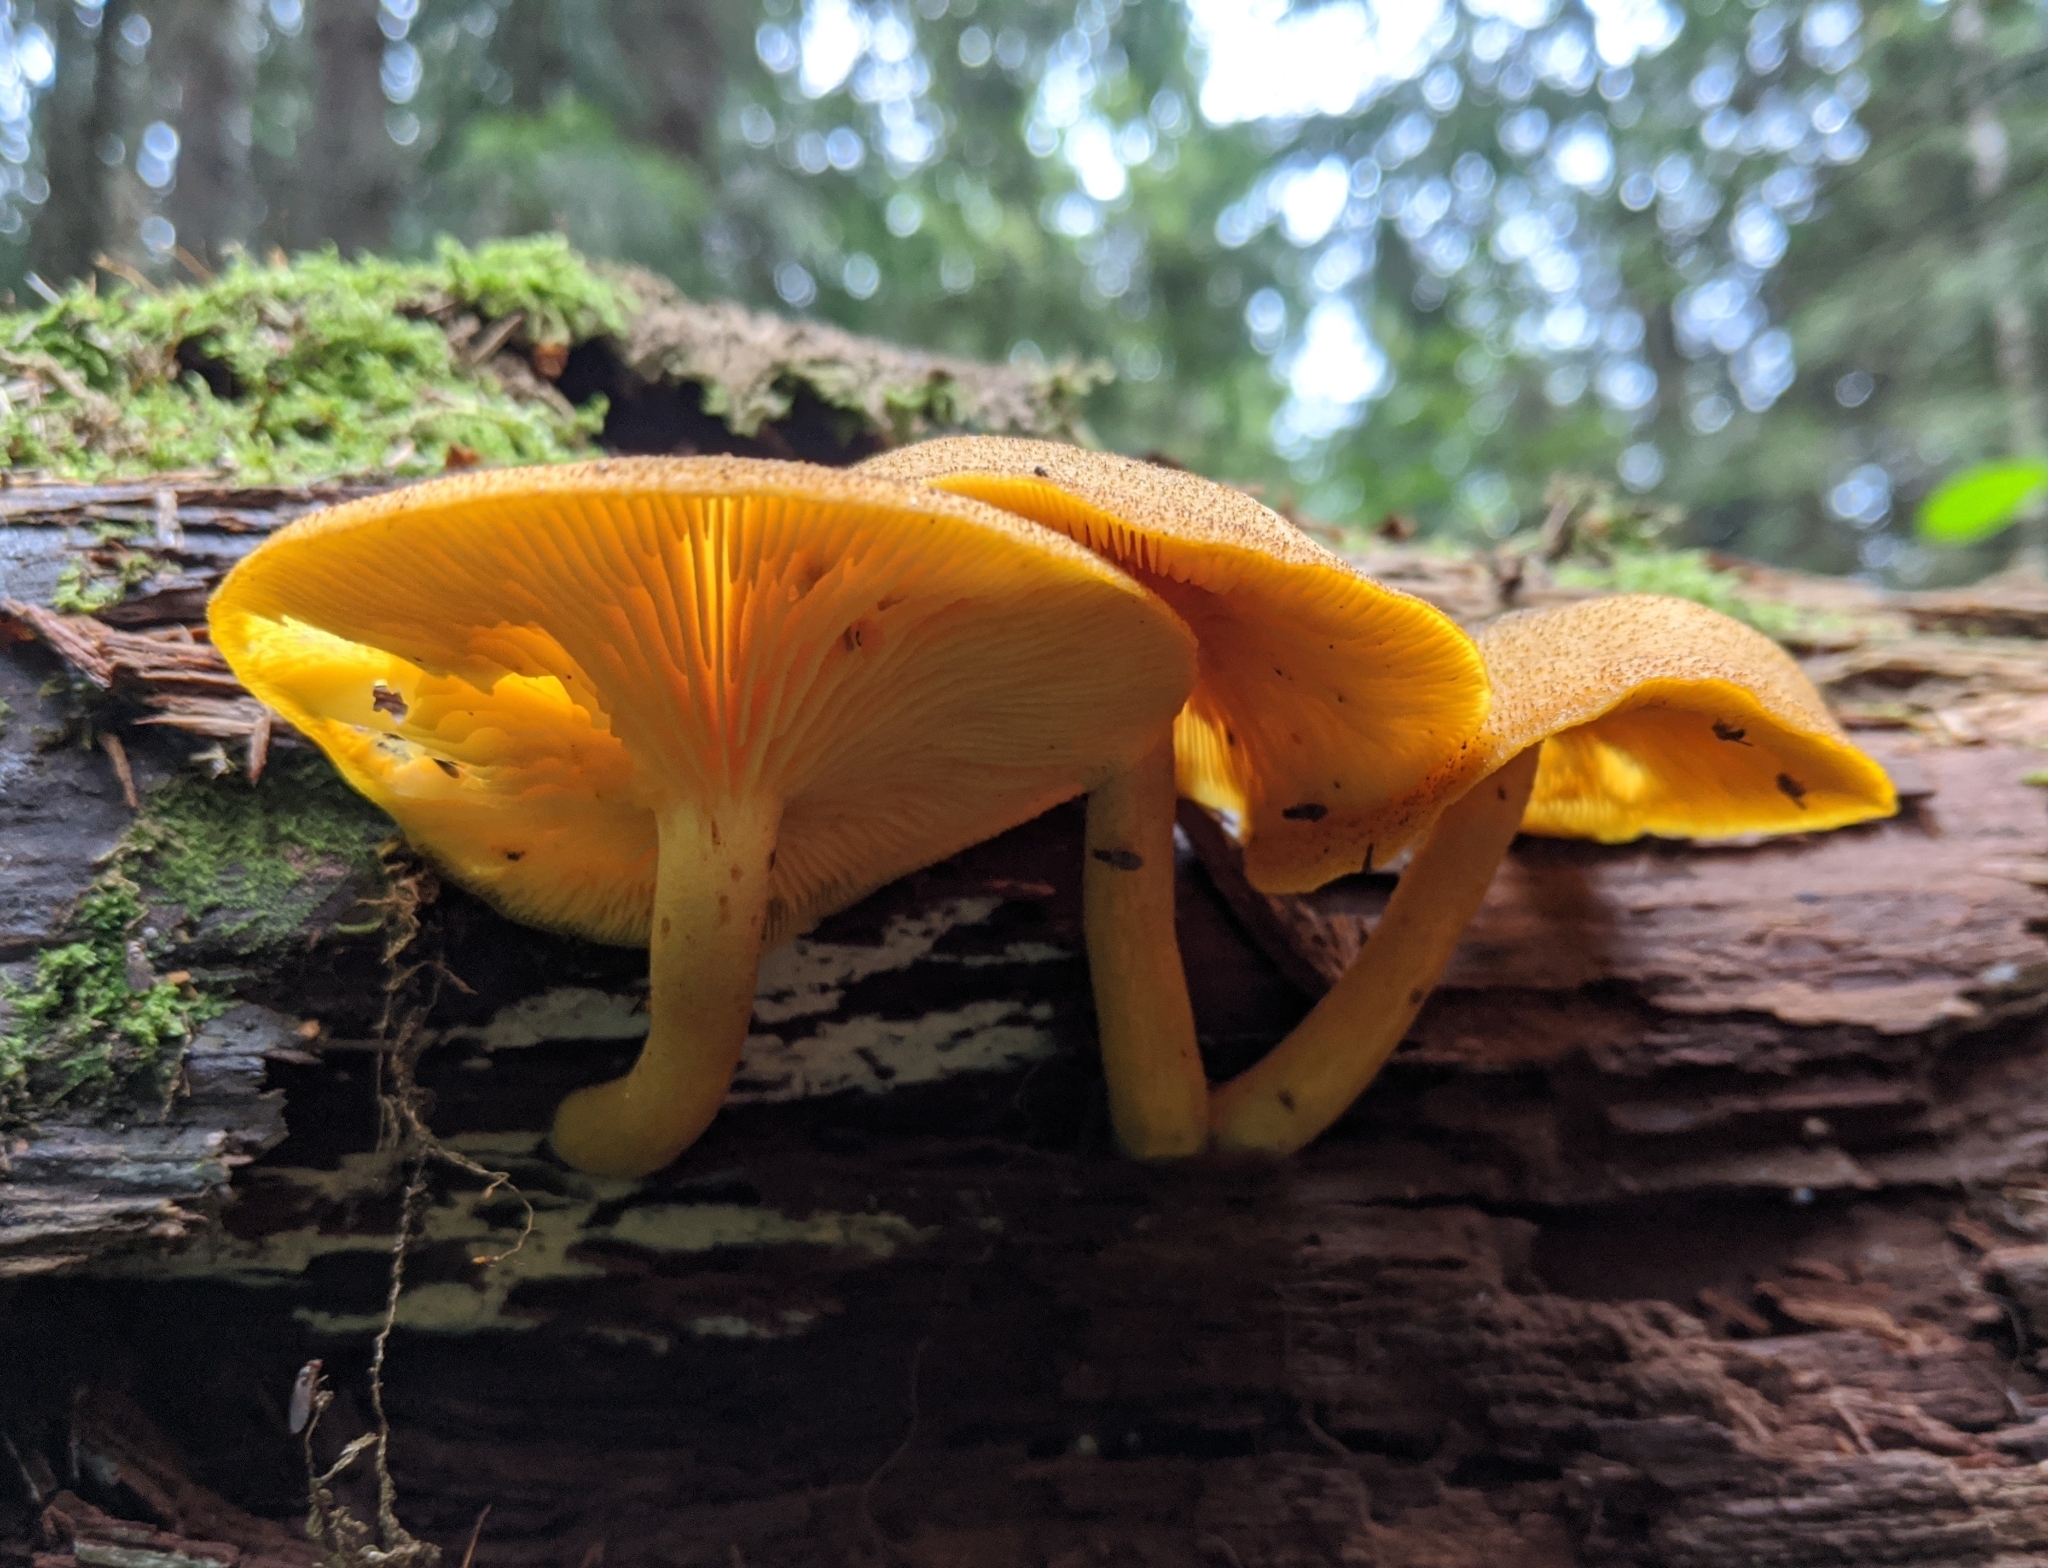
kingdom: Fungi
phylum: Basidiomycota
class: Agaricomycetes
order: Agaricales
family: Tricholomataceae
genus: Tricholomopsis
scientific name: Tricholomopsis decora
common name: Prunes and custard
